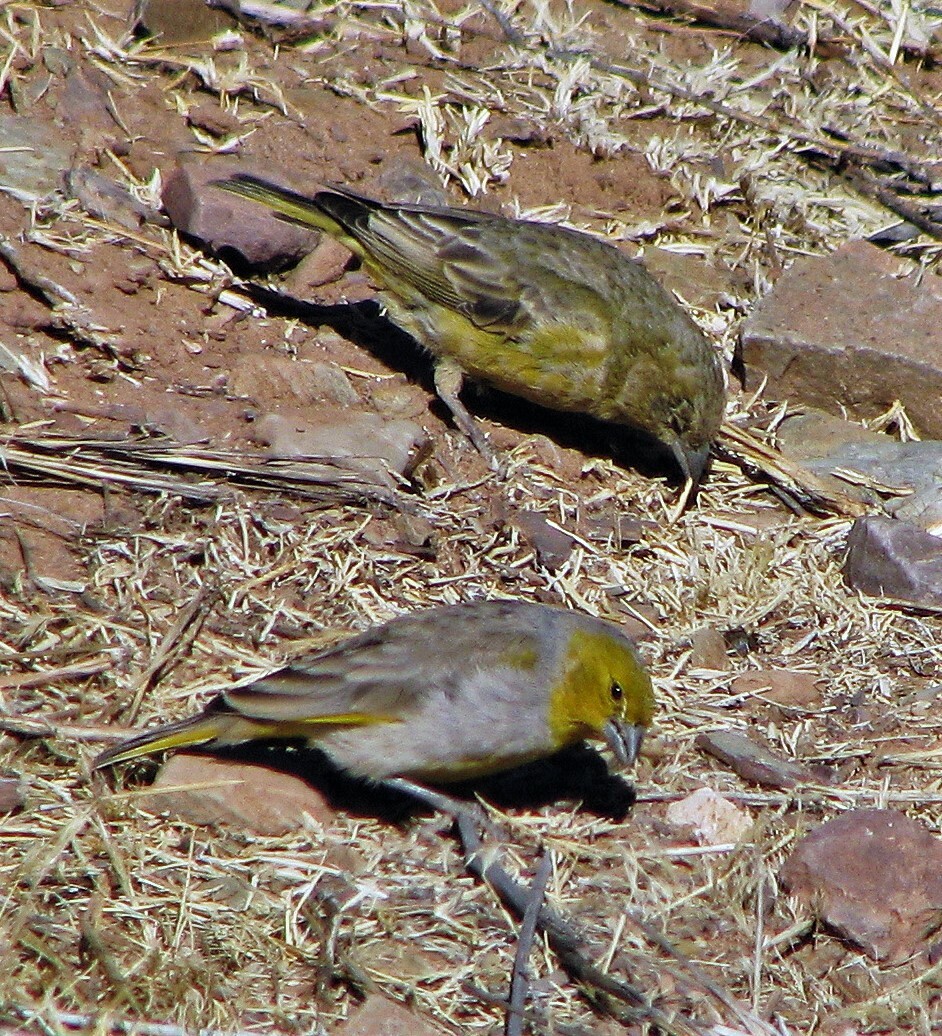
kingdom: Animalia
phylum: Chordata
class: Aves
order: Passeriformes
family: Thraupidae
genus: Sicalis
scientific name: Sicalis luteocephala
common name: Citron-headed yellow finch
